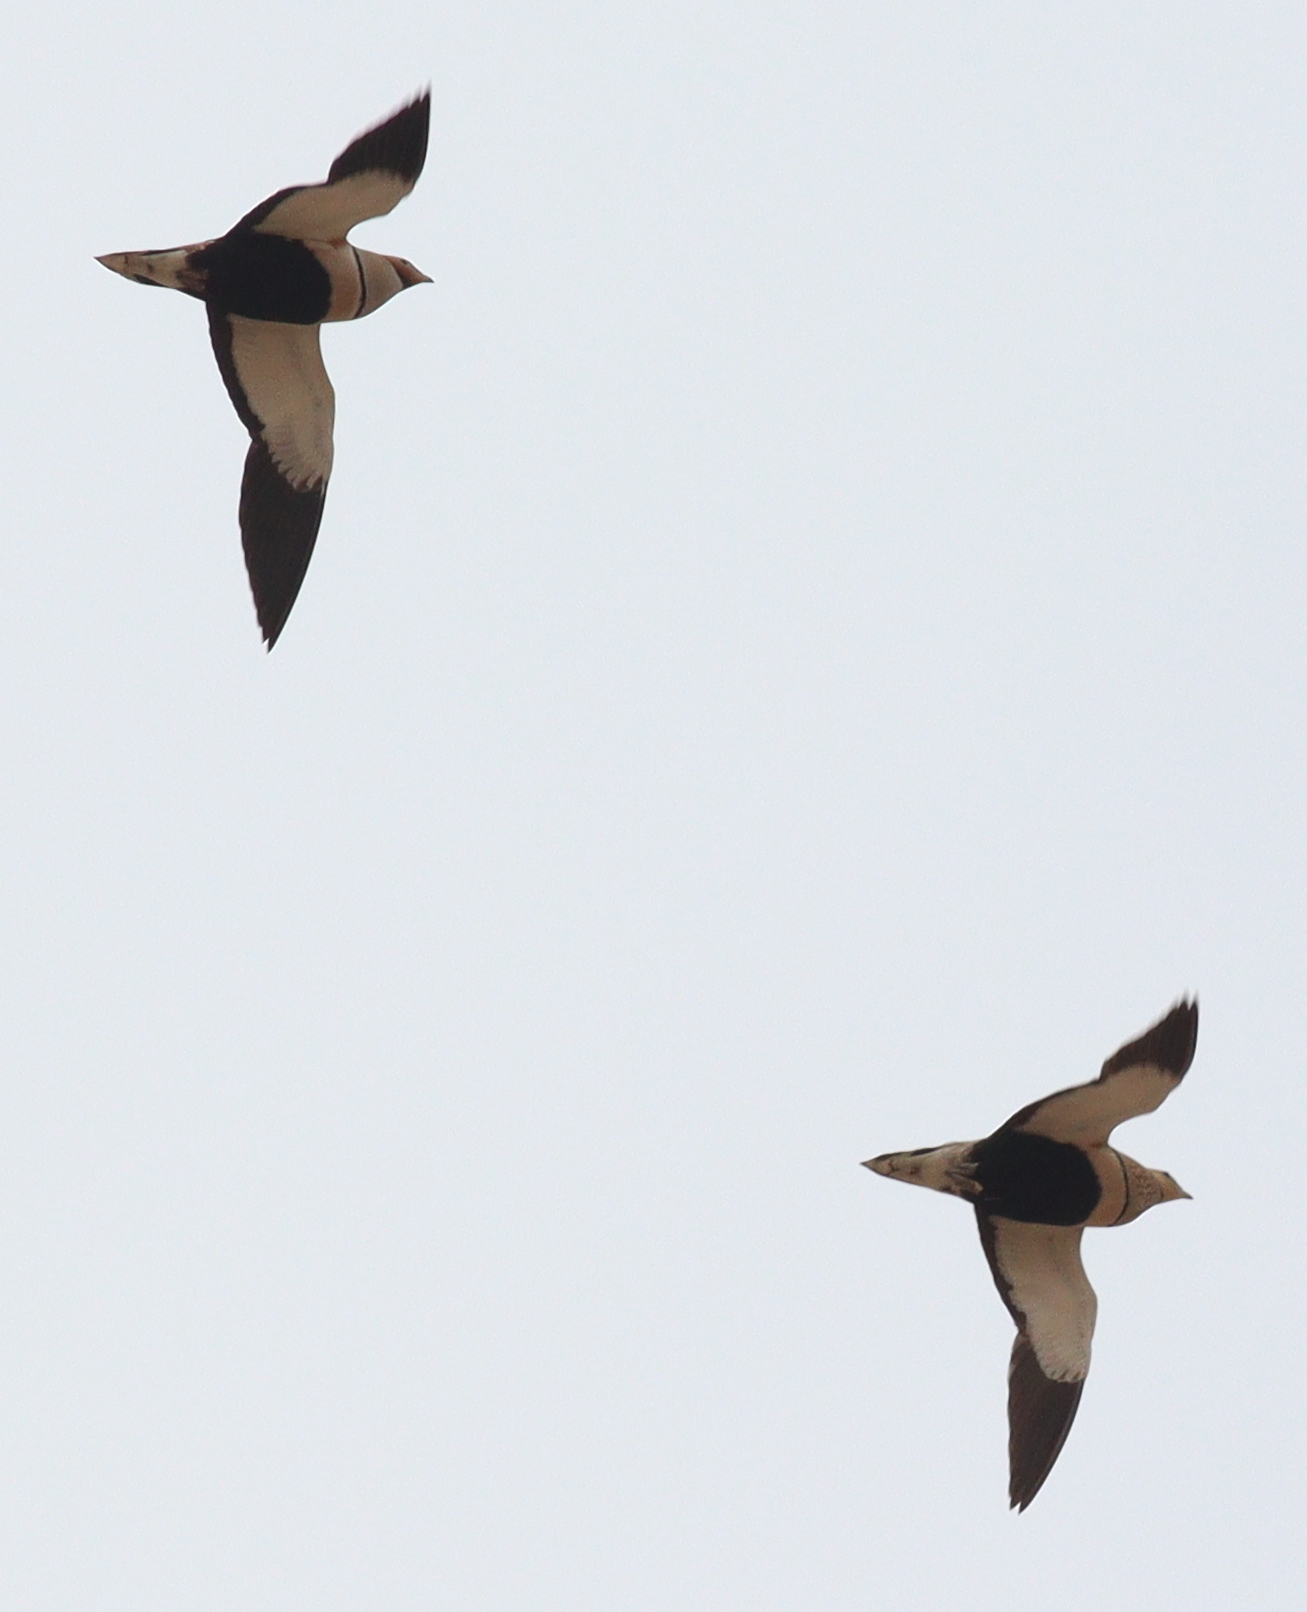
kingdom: Animalia
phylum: Chordata
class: Aves
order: Pteroclidiformes
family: Pteroclididae
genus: Pterocles
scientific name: Pterocles orientalis
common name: Black-bellied sandgrouse
